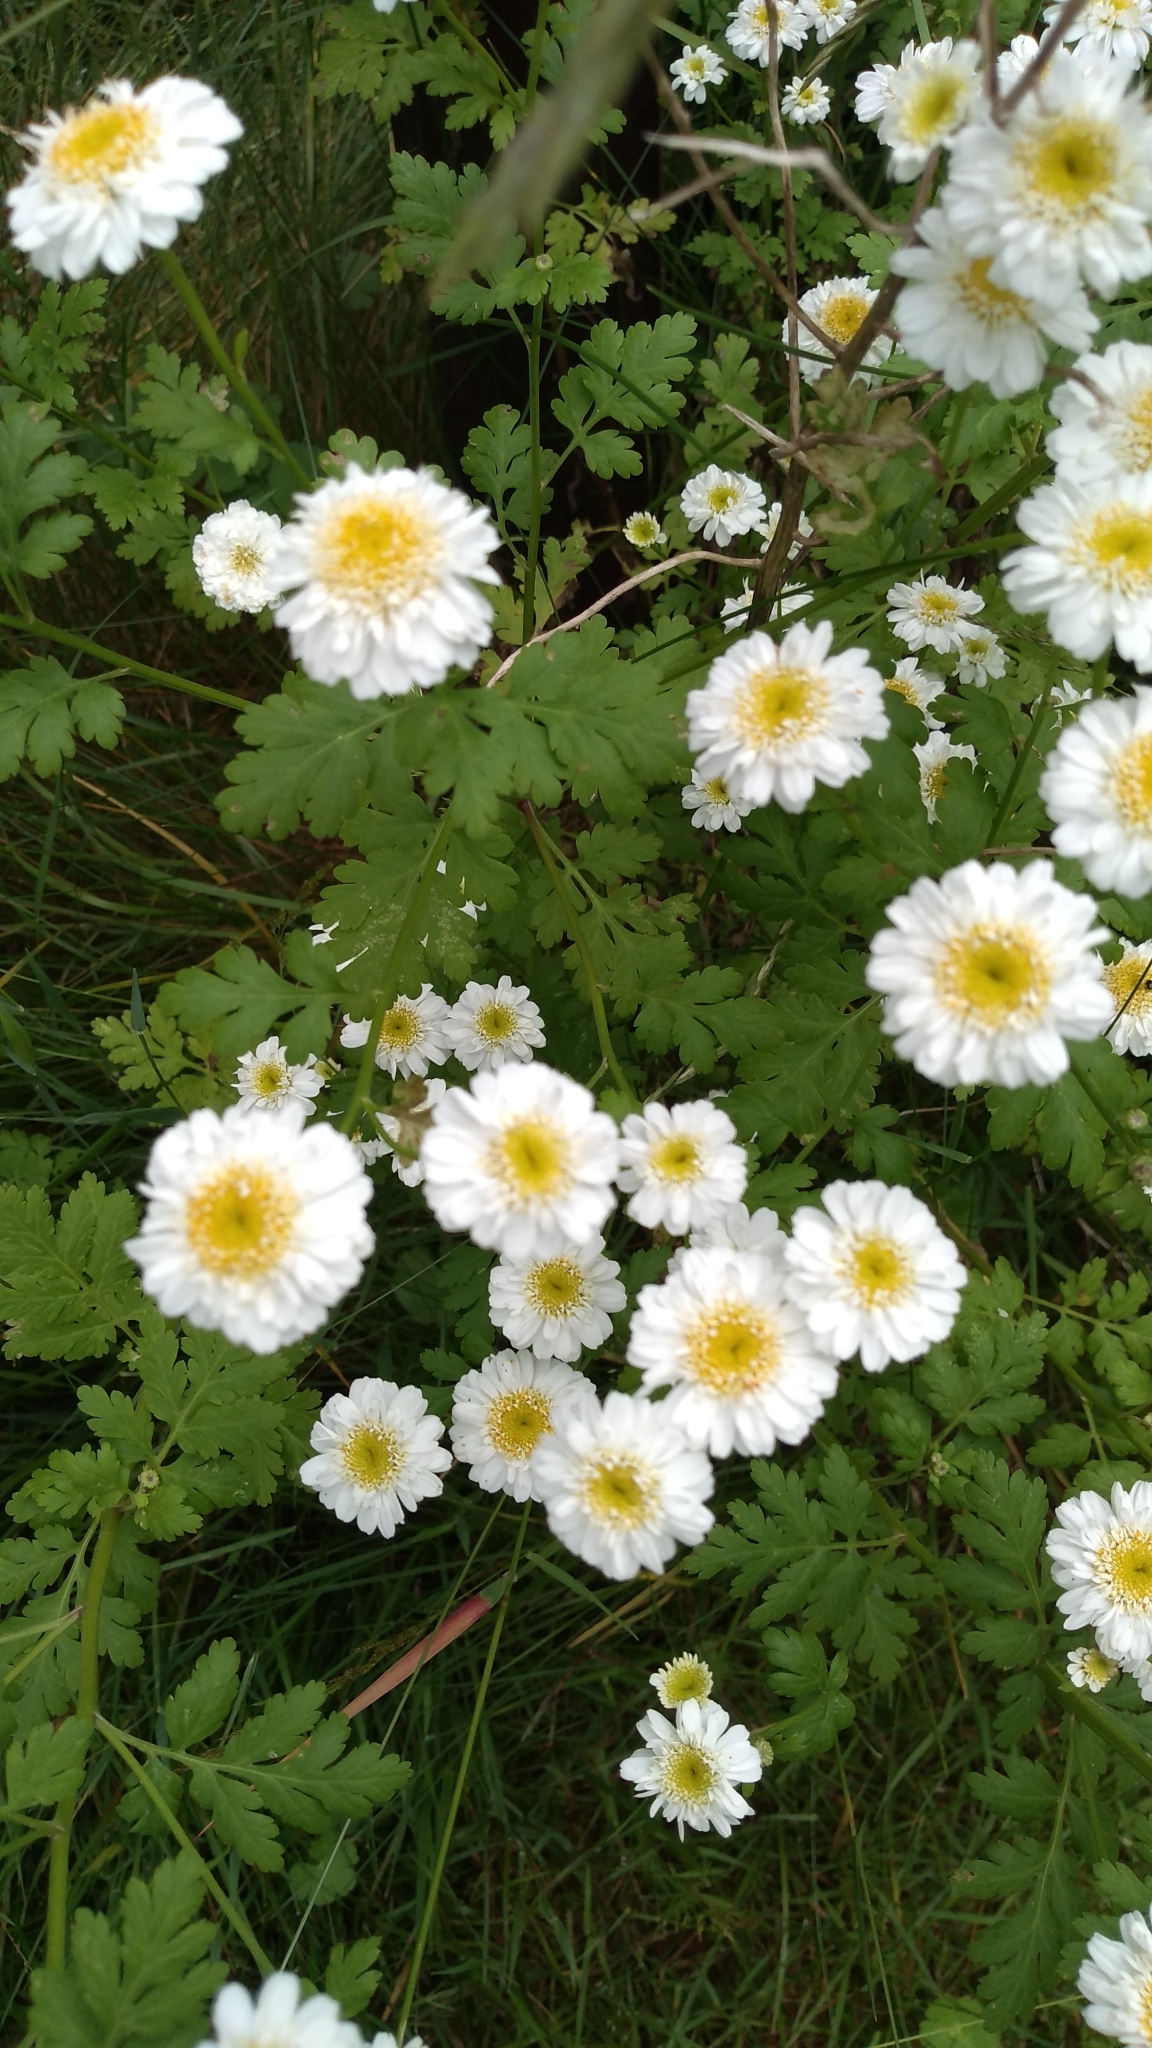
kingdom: Plantae
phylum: Tracheophyta
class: Magnoliopsida
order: Asterales
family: Asteraceae
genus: Tanacetum
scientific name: Tanacetum parthenium
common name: Feverfew
